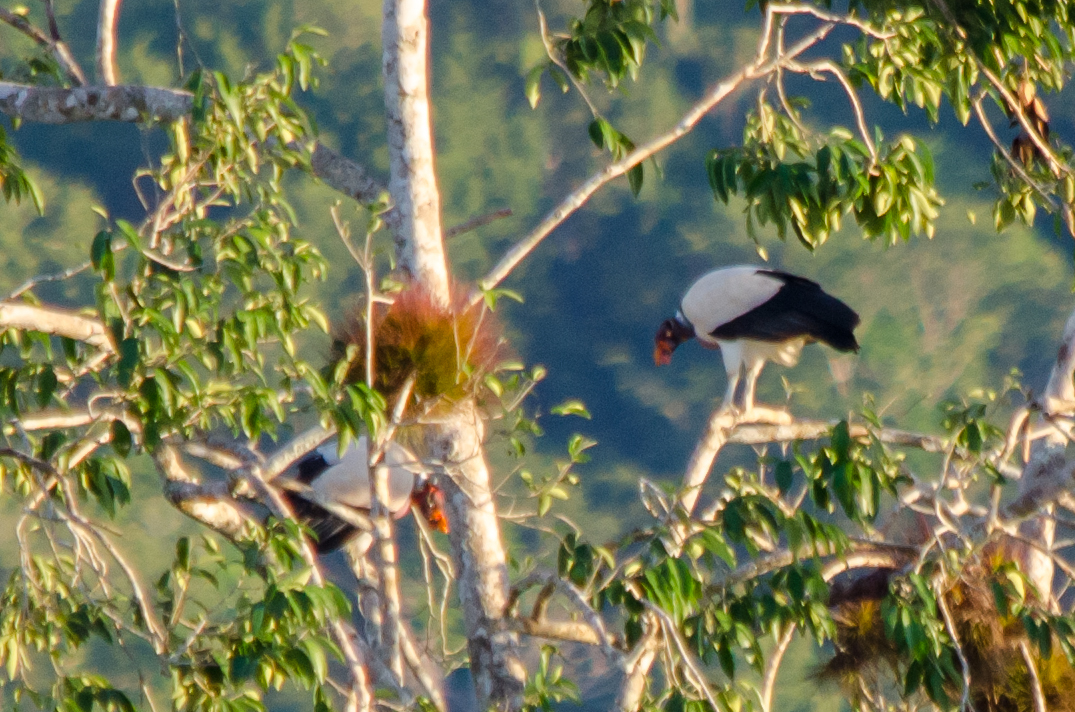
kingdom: Animalia
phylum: Chordata
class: Aves
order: Accipitriformes
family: Cathartidae
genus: Sarcoramphus
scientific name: Sarcoramphus papa
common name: King vulture
